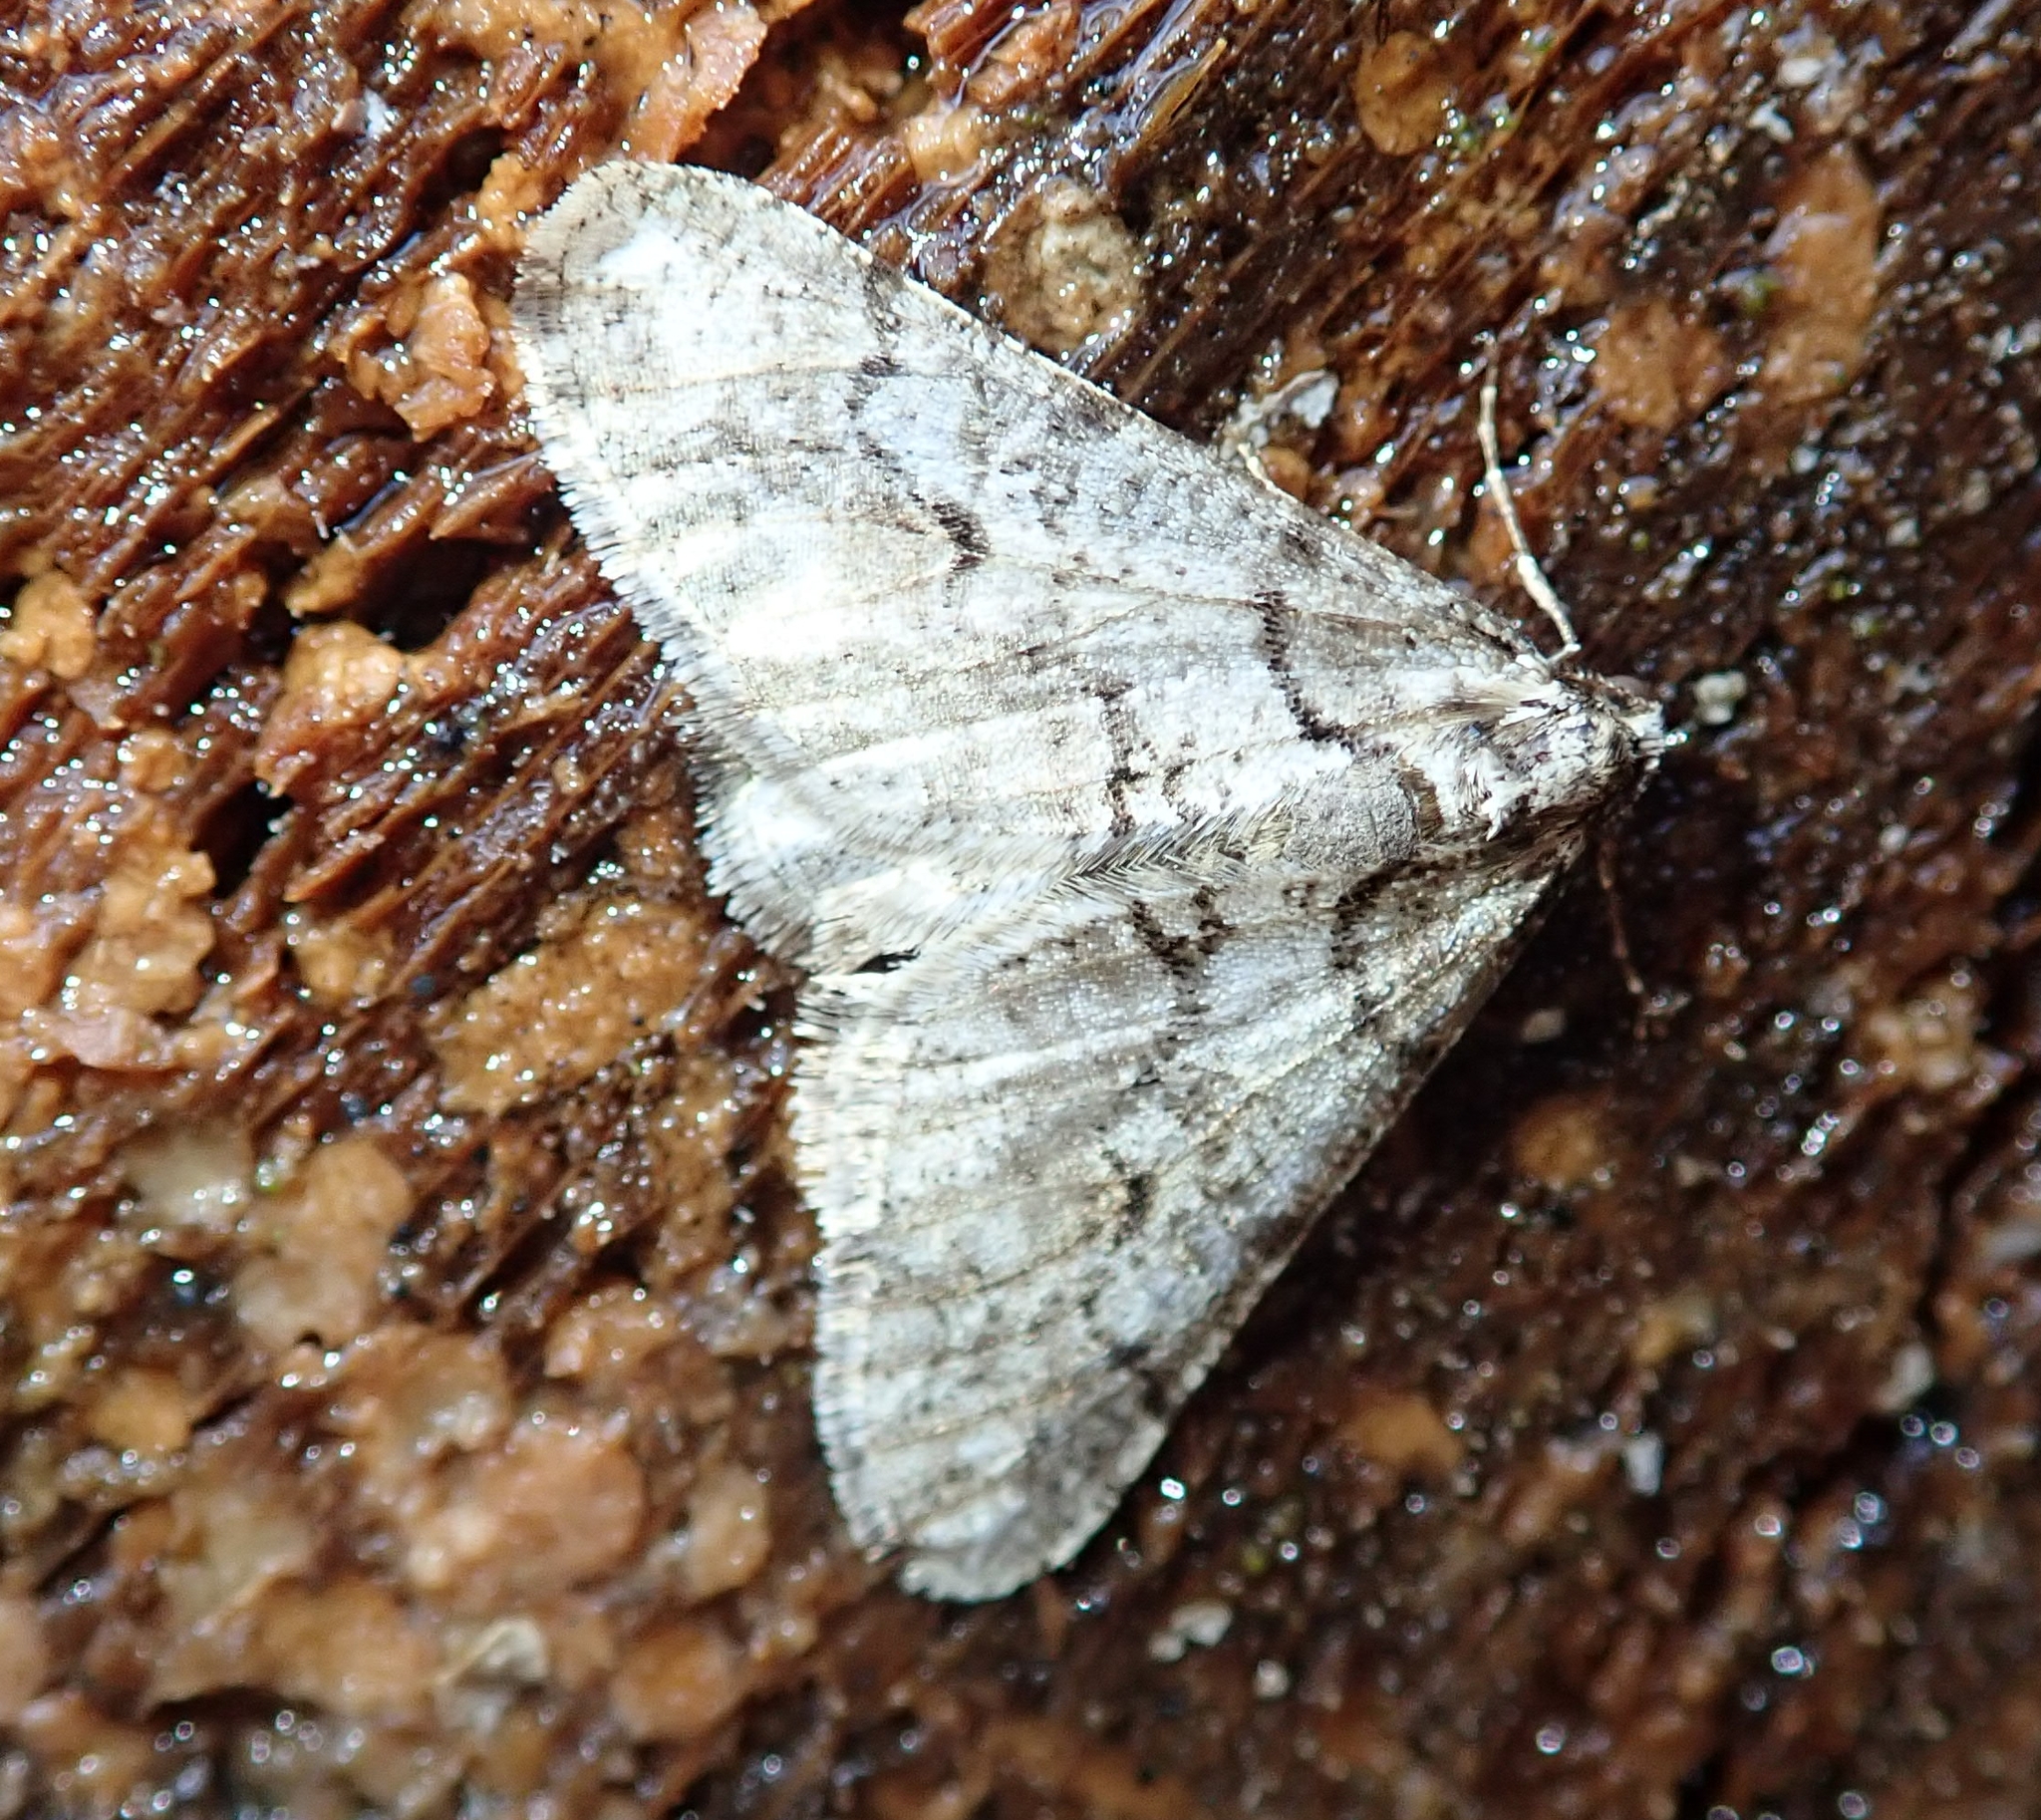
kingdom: Animalia
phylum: Arthropoda
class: Insecta
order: Lepidoptera
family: Geometridae
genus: Agriopis
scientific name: Agriopis leucophaearia
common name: Spring usher
